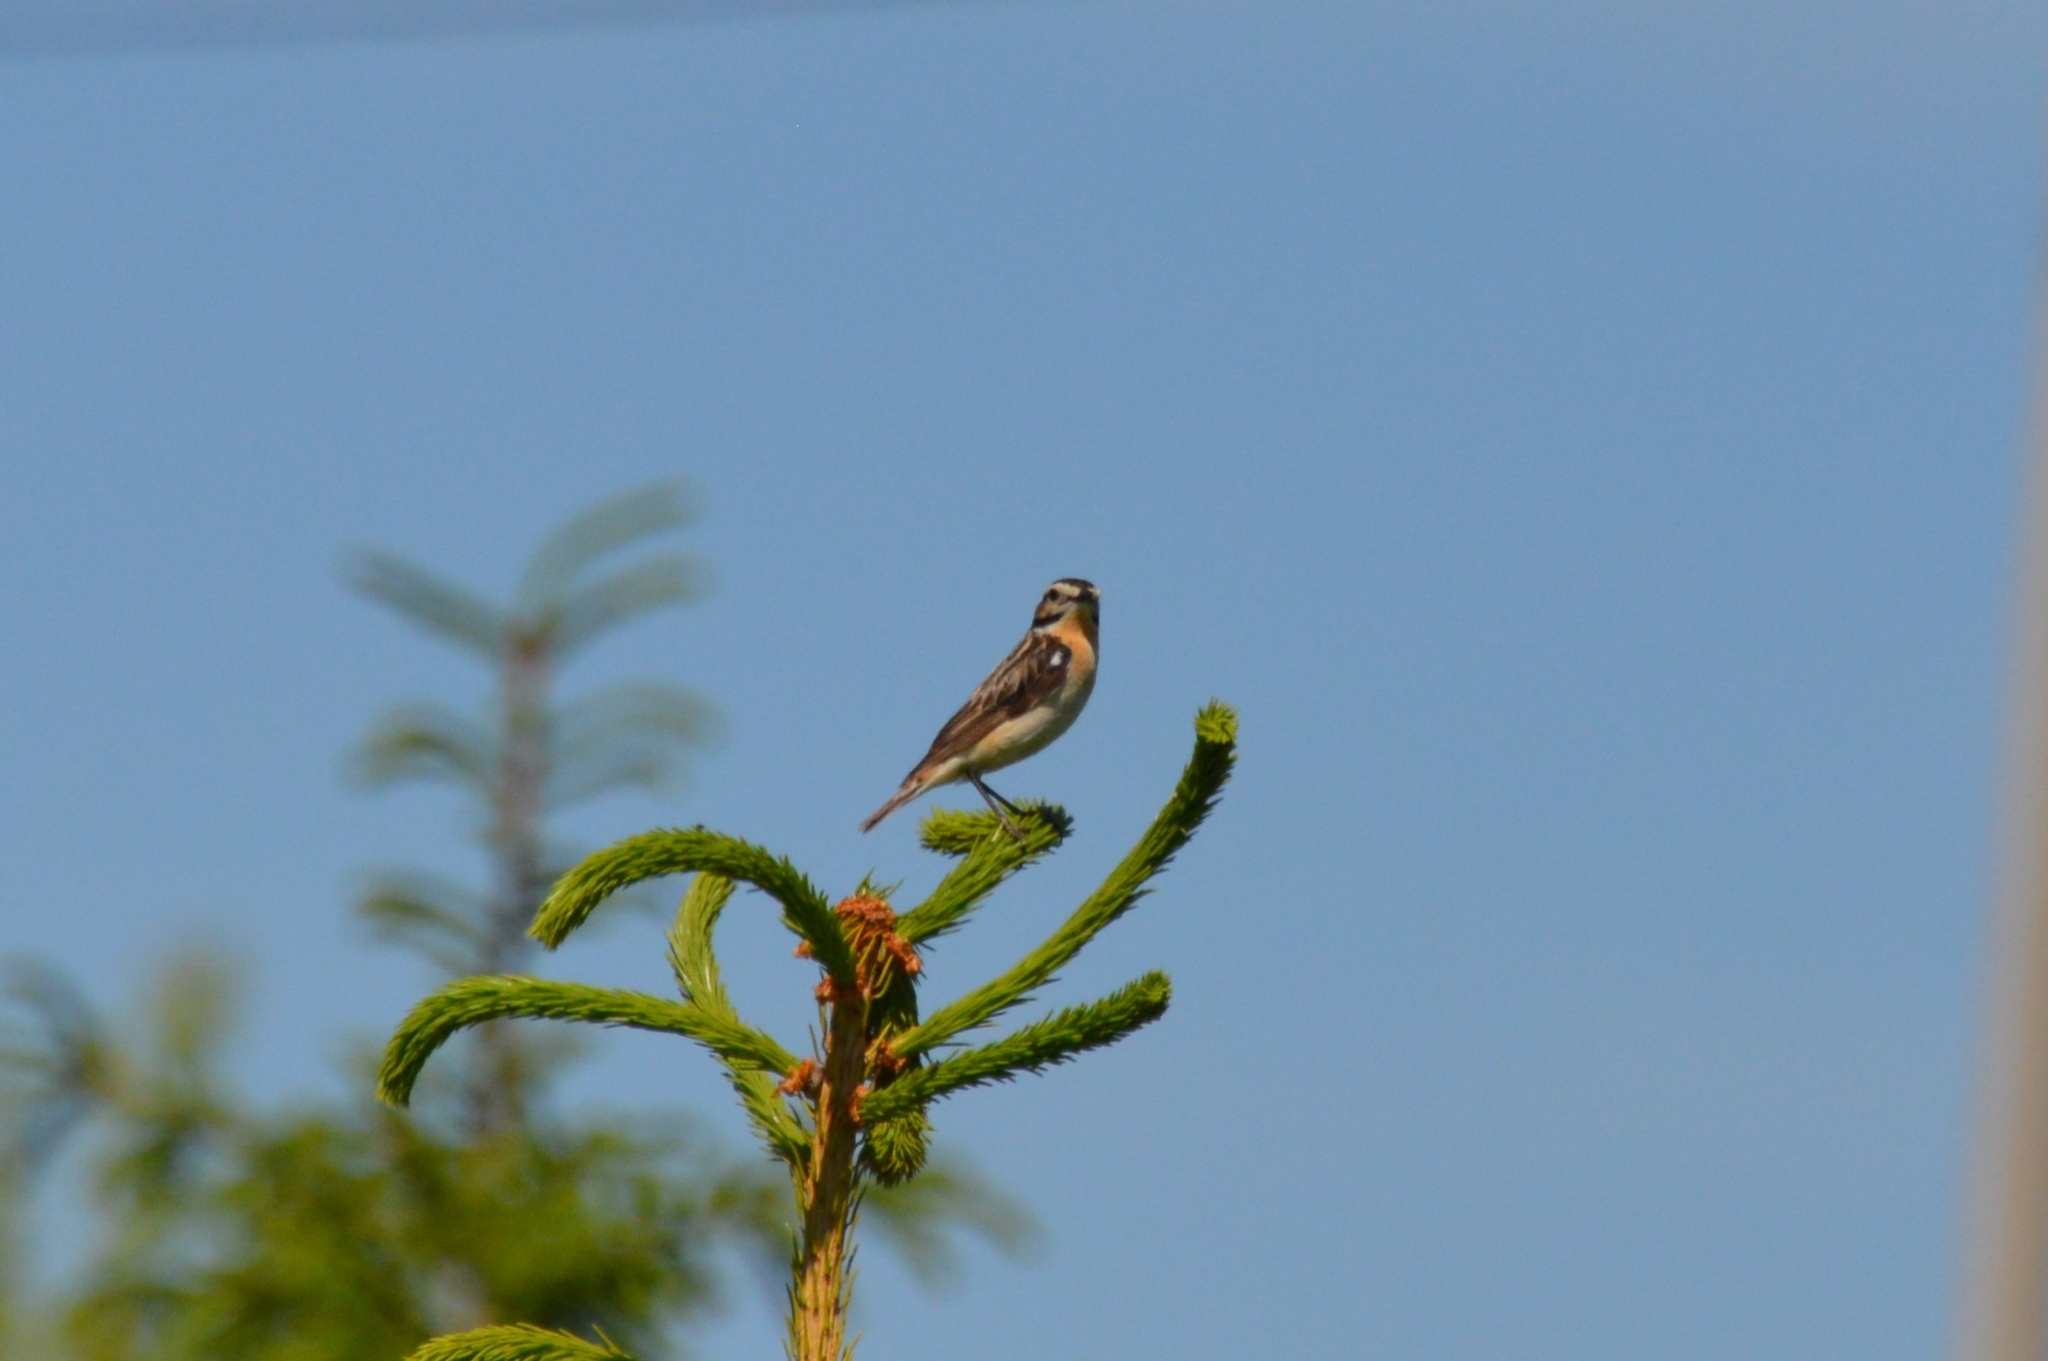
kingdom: Animalia
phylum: Chordata
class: Aves
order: Passeriformes
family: Muscicapidae
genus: Saxicola
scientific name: Saxicola rubetra
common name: Whinchat
